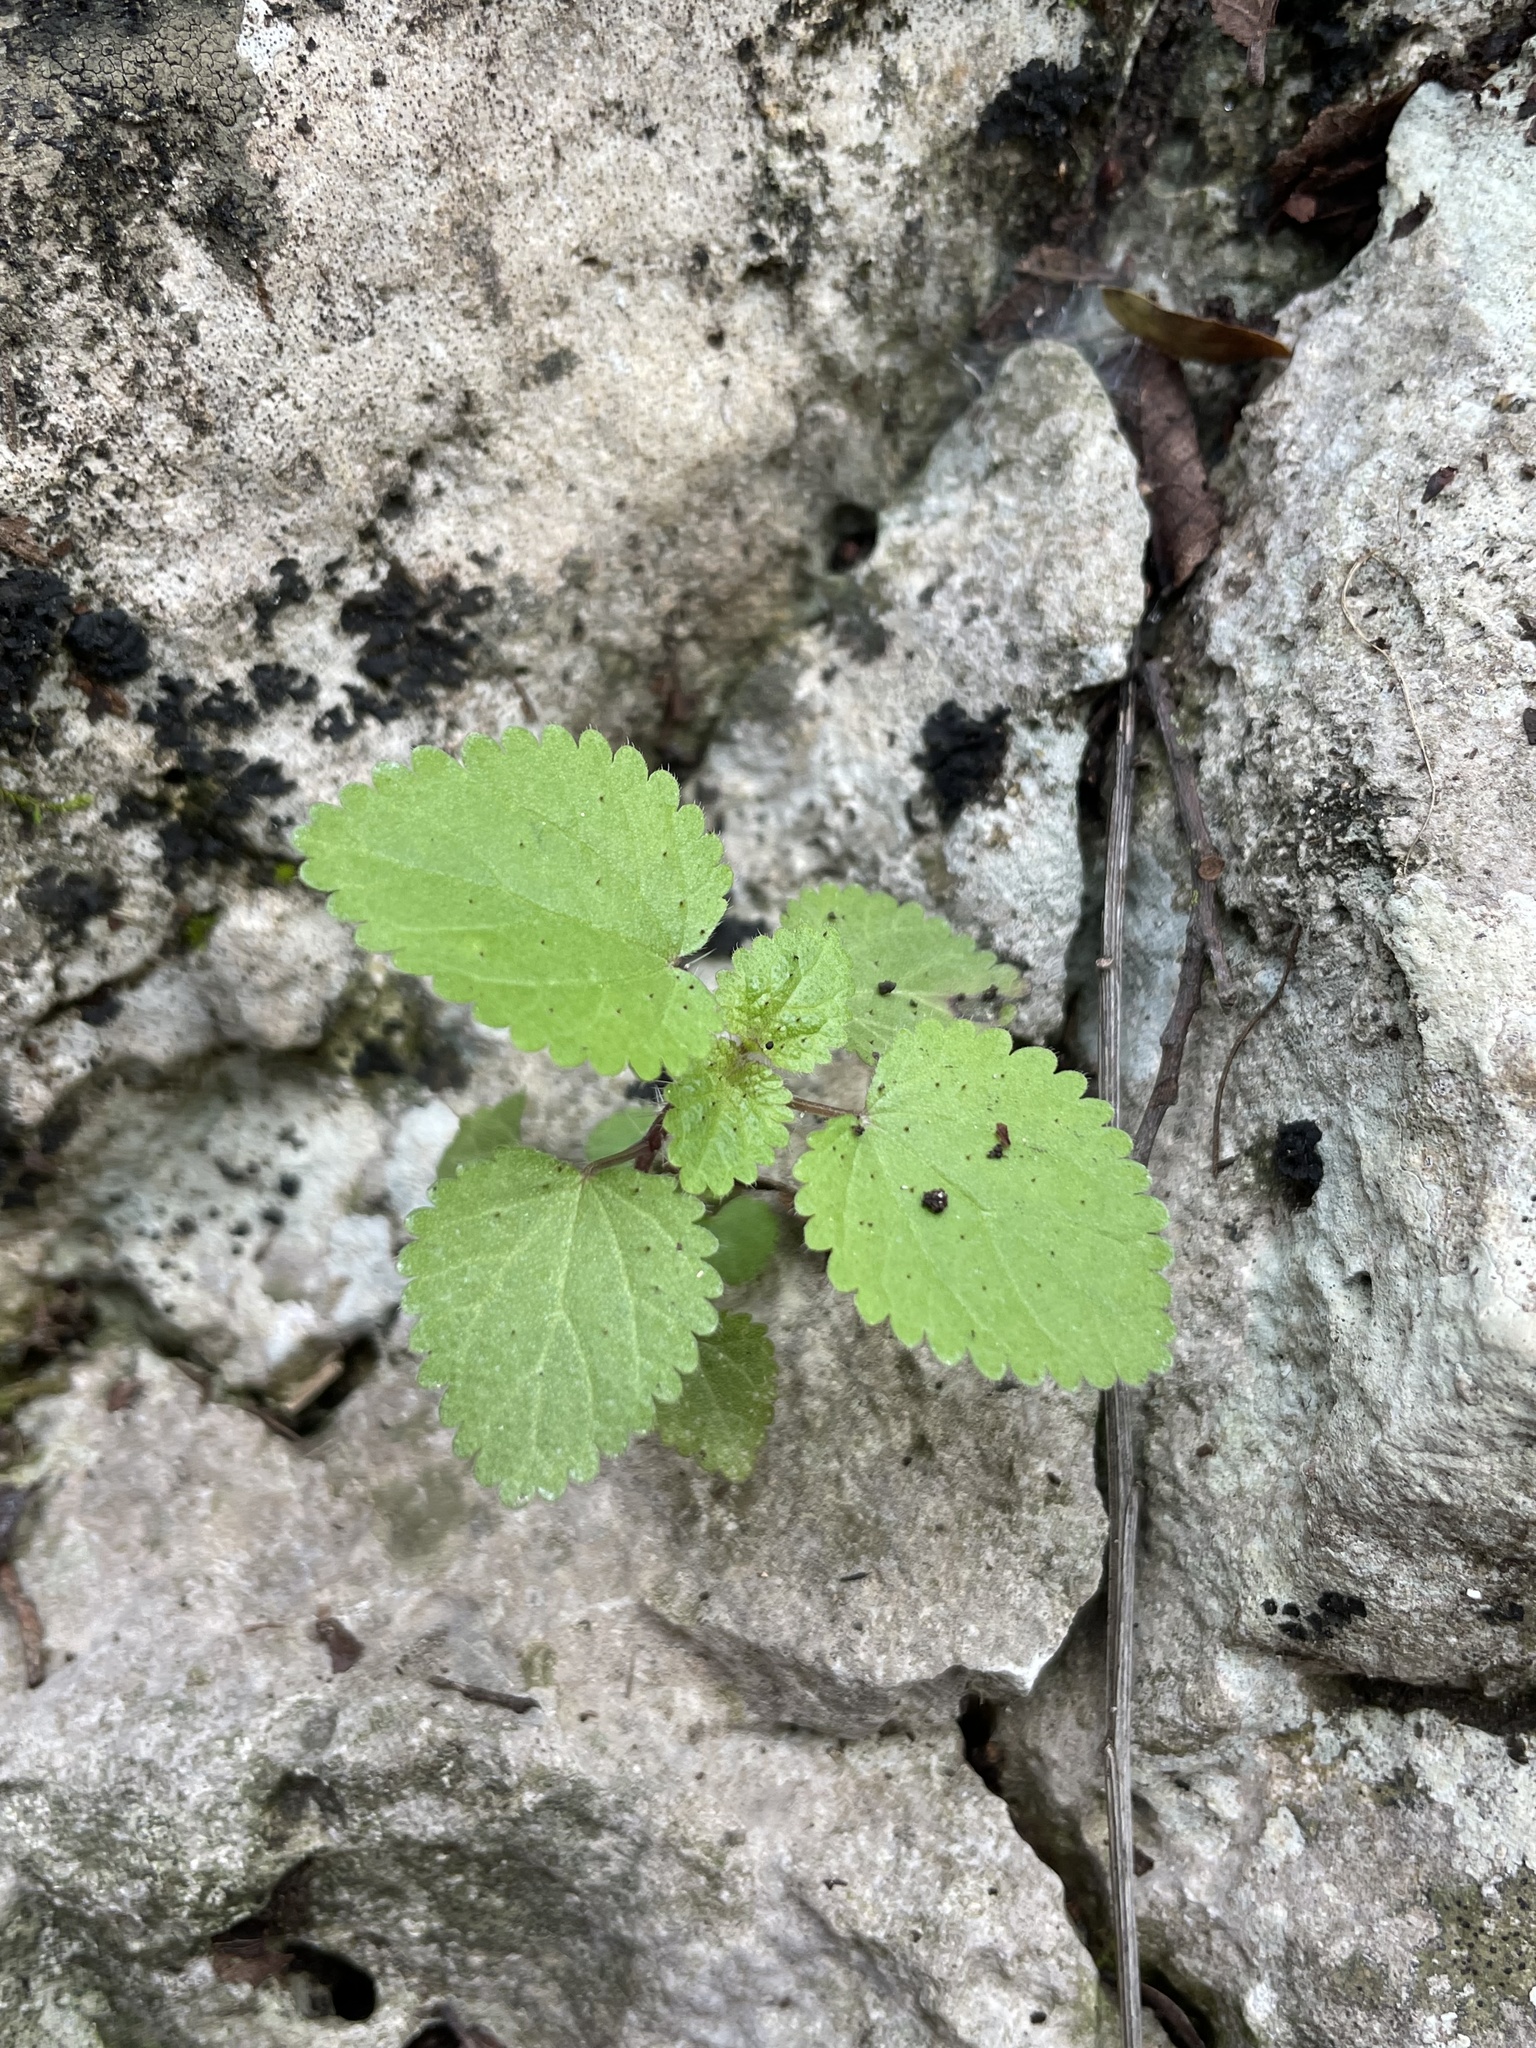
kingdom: Plantae
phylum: Tracheophyta
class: Magnoliopsida
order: Rosales
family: Urticaceae
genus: Urtica
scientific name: Urtica chamaedryoides
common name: Heart-leaf nettle
